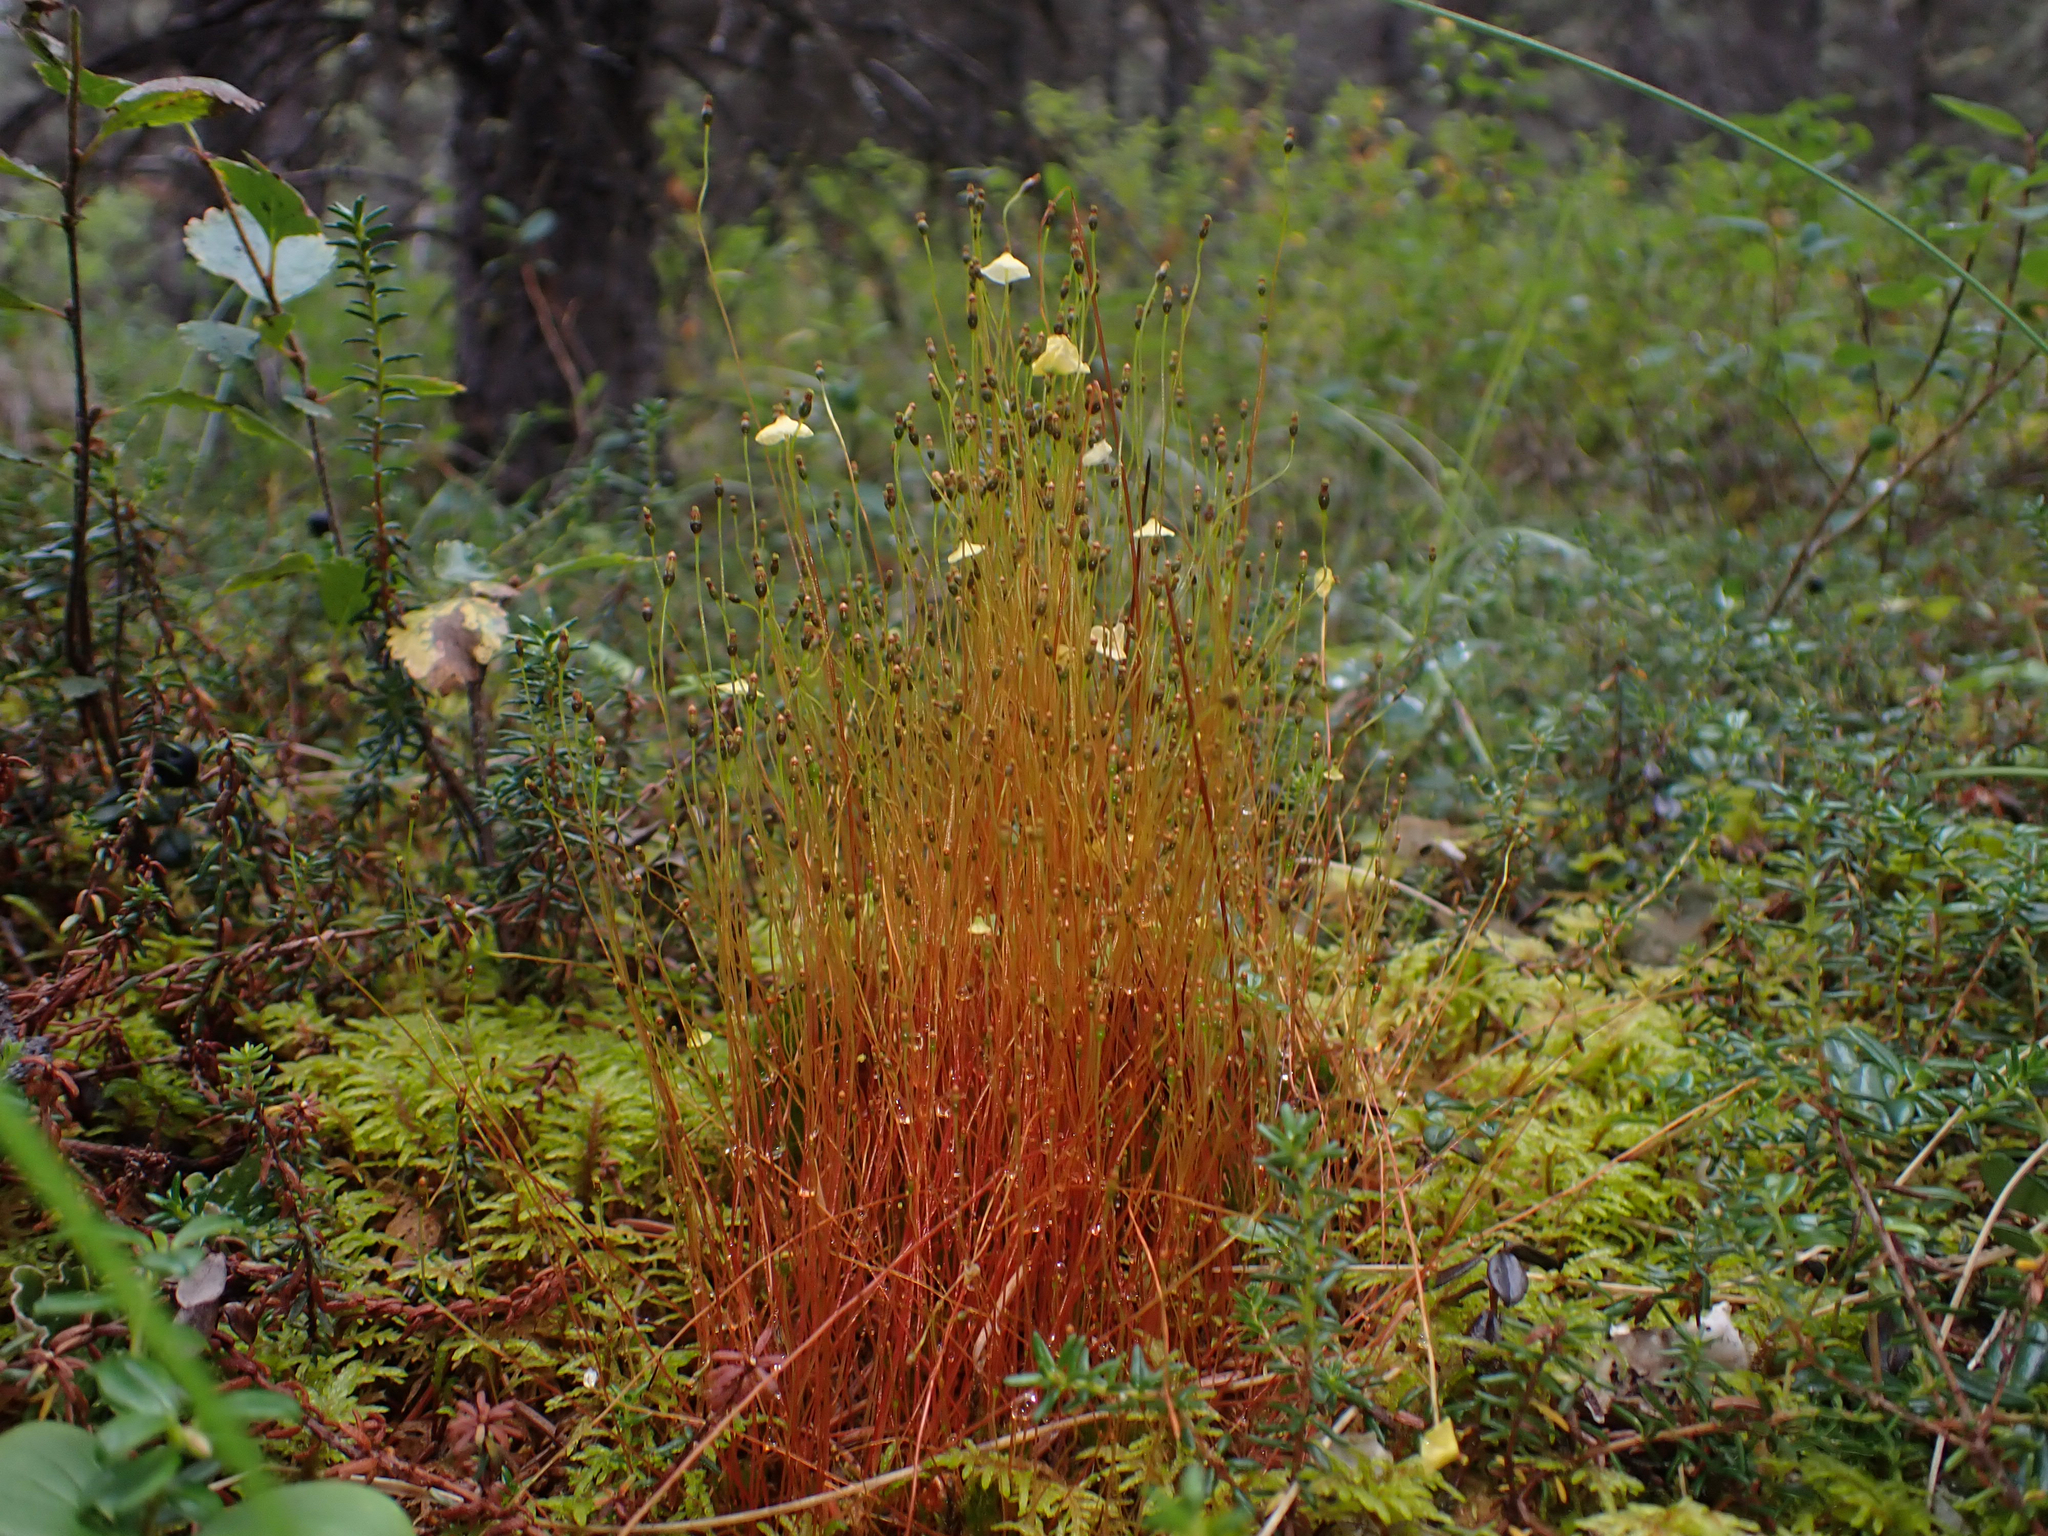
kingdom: Plantae
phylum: Bryophyta
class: Bryopsida
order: Splachnales
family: Splachnaceae
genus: Splachnum
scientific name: Splachnum sphaericum
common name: Round-fruited dung moss
